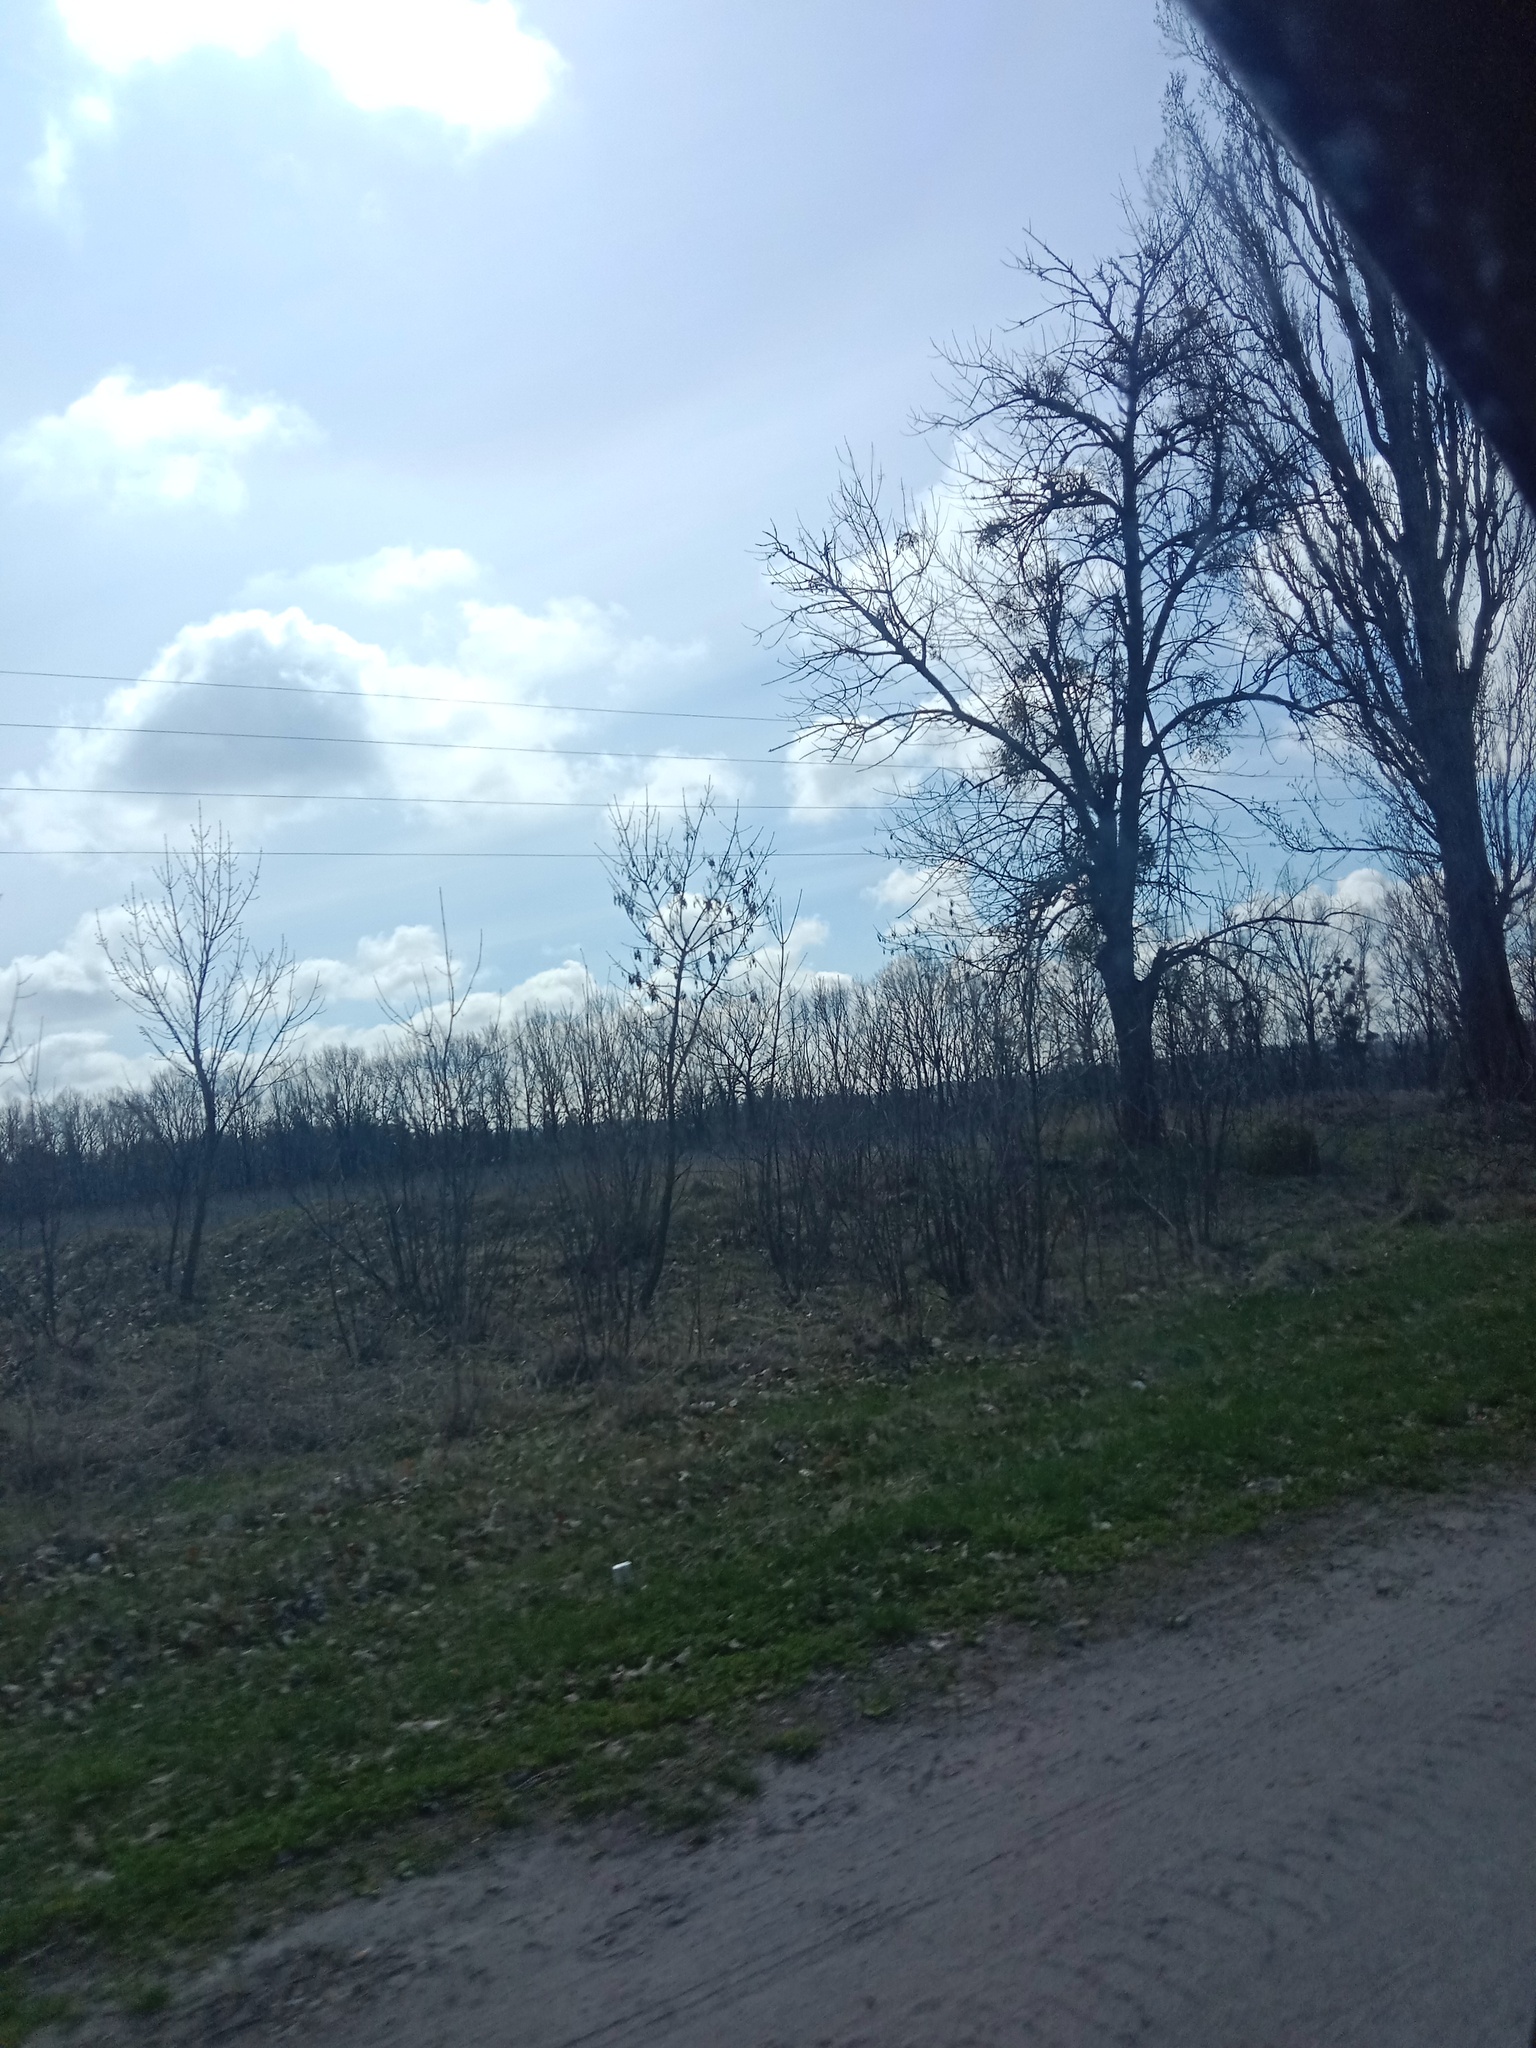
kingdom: Plantae
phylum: Tracheophyta
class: Magnoliopsida
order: Santalales
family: Viscaceae
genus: Viscum
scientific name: Viscum album
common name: Mistletoe
